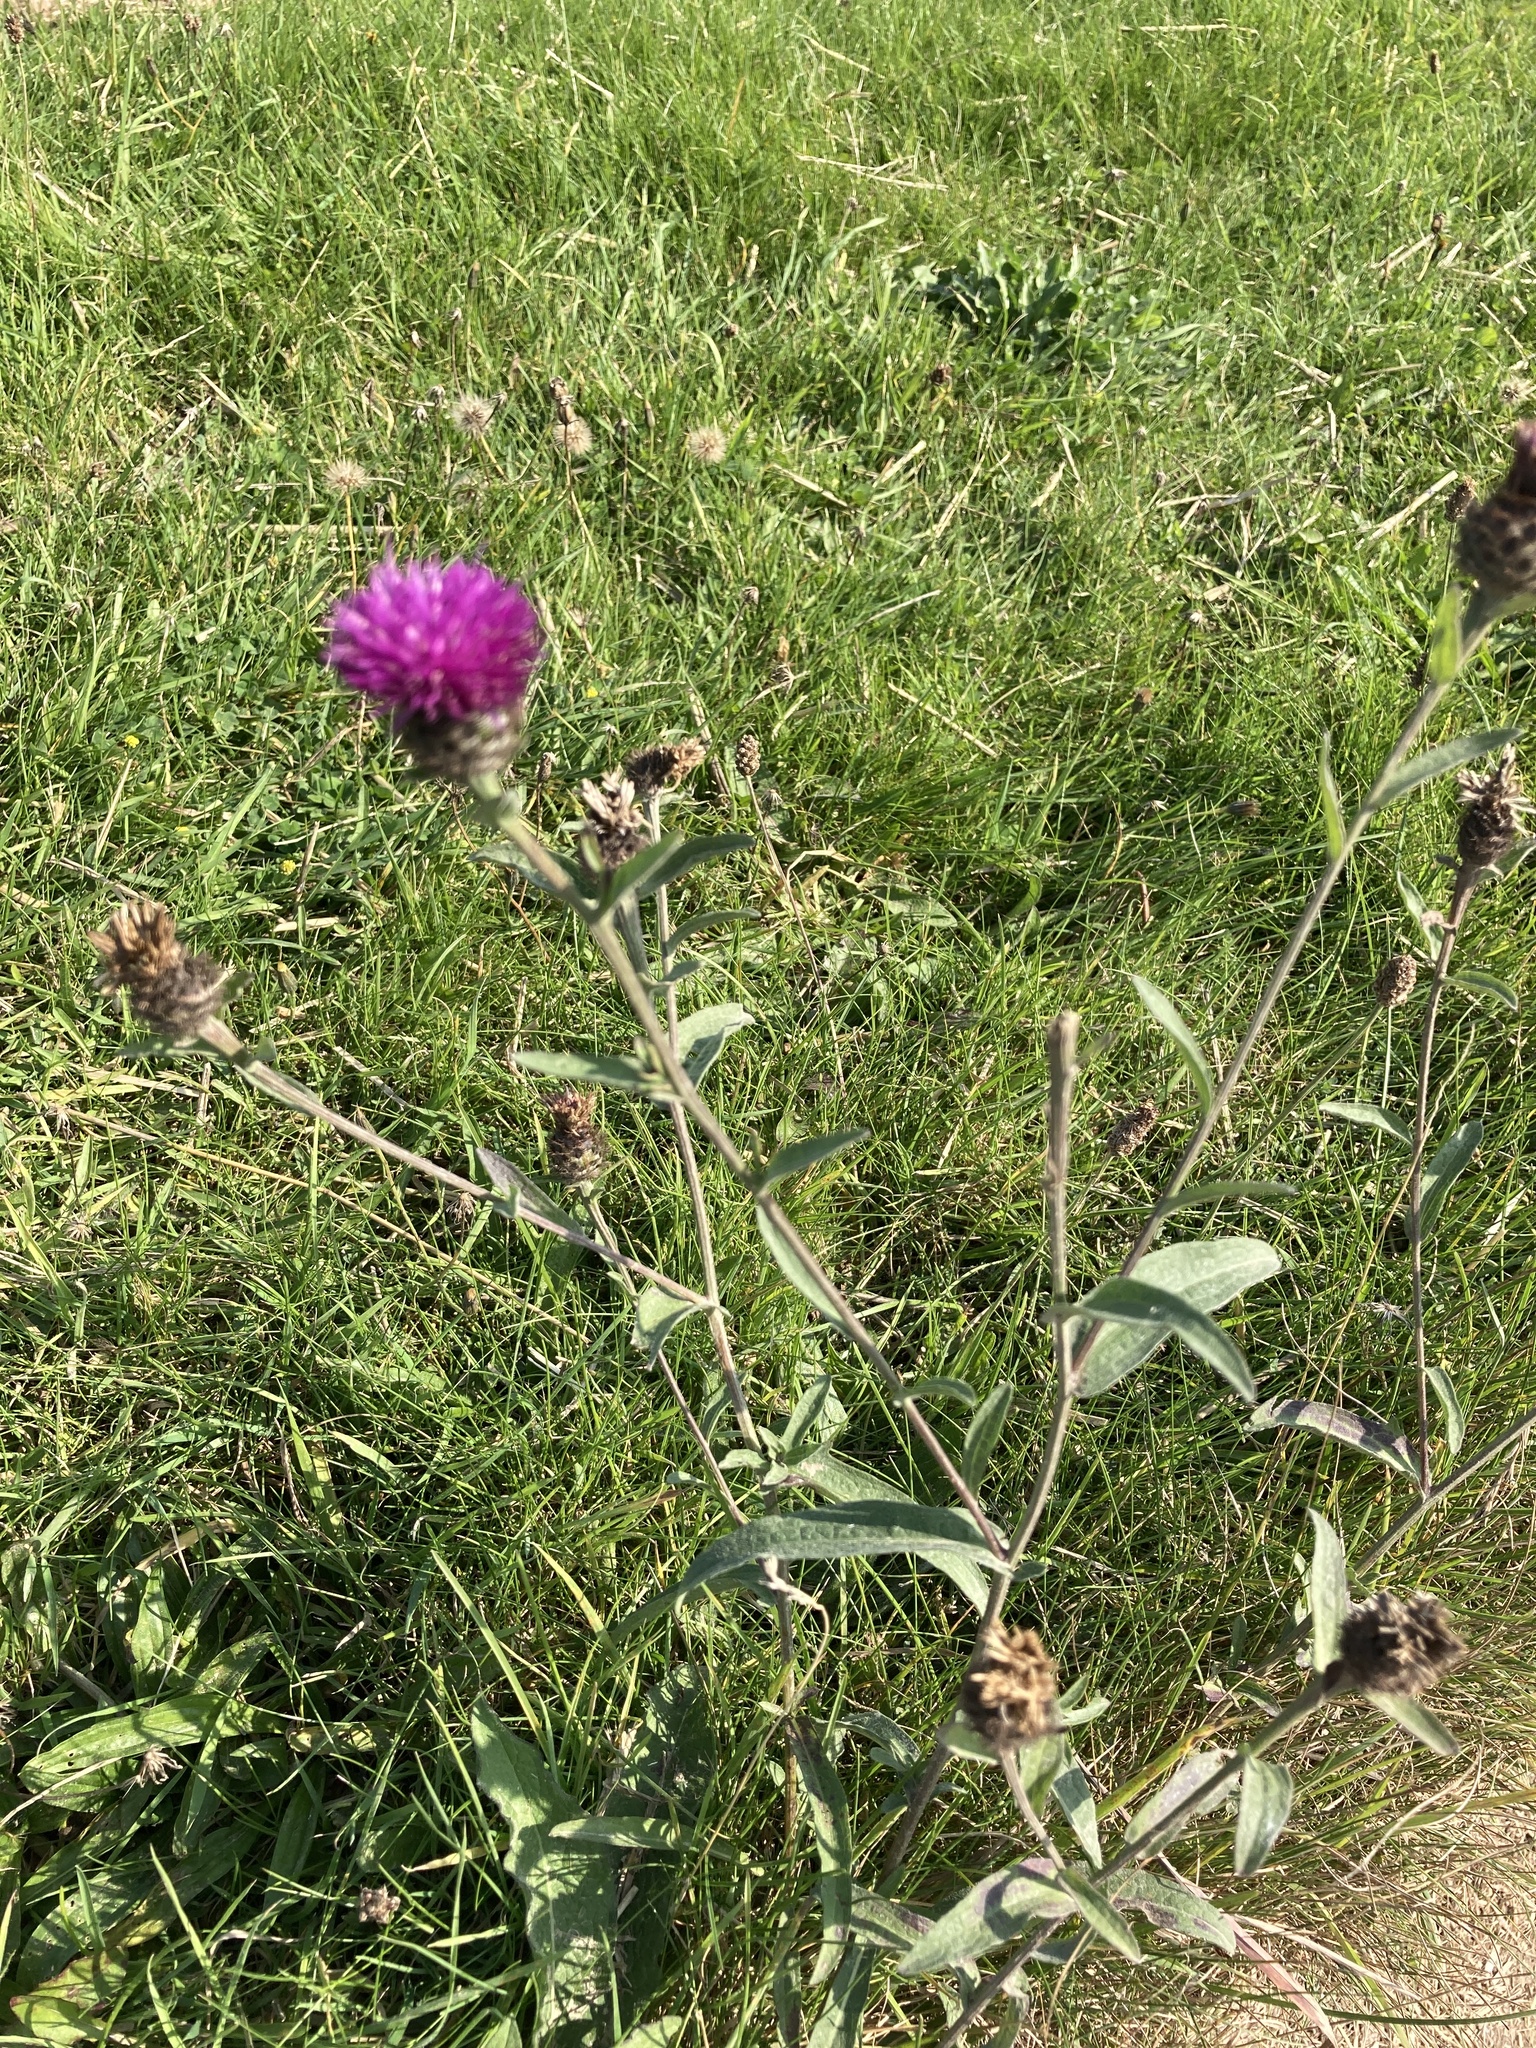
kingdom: Plantae
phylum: Tracheophyta
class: Magnoliopsida
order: Asterales
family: Asteraceae
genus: Centaurea
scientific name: Centaurea nigra
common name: Lesser knapweed
